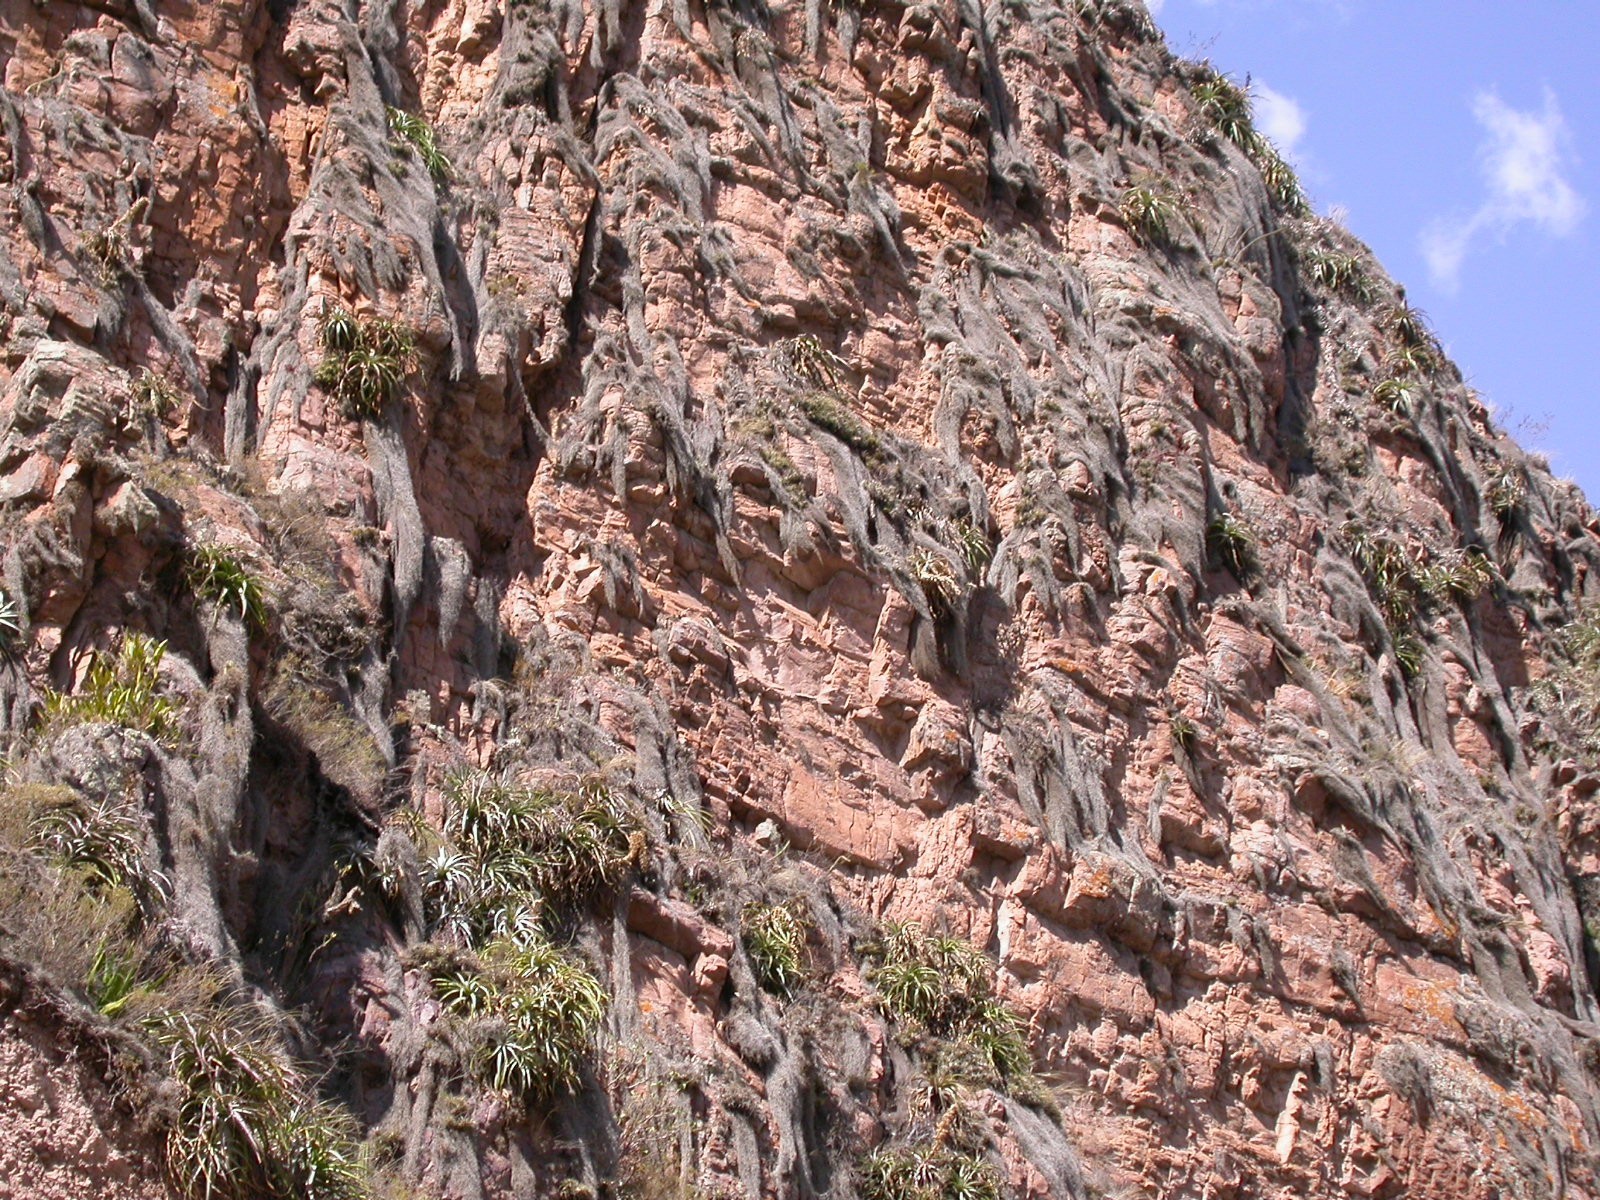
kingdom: Plantae
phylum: Tracheophyta
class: Liliopsida
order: Poales
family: Bromeliaceae
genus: Tillandsia
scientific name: Tillandsia usneoides
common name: Spanish moss
